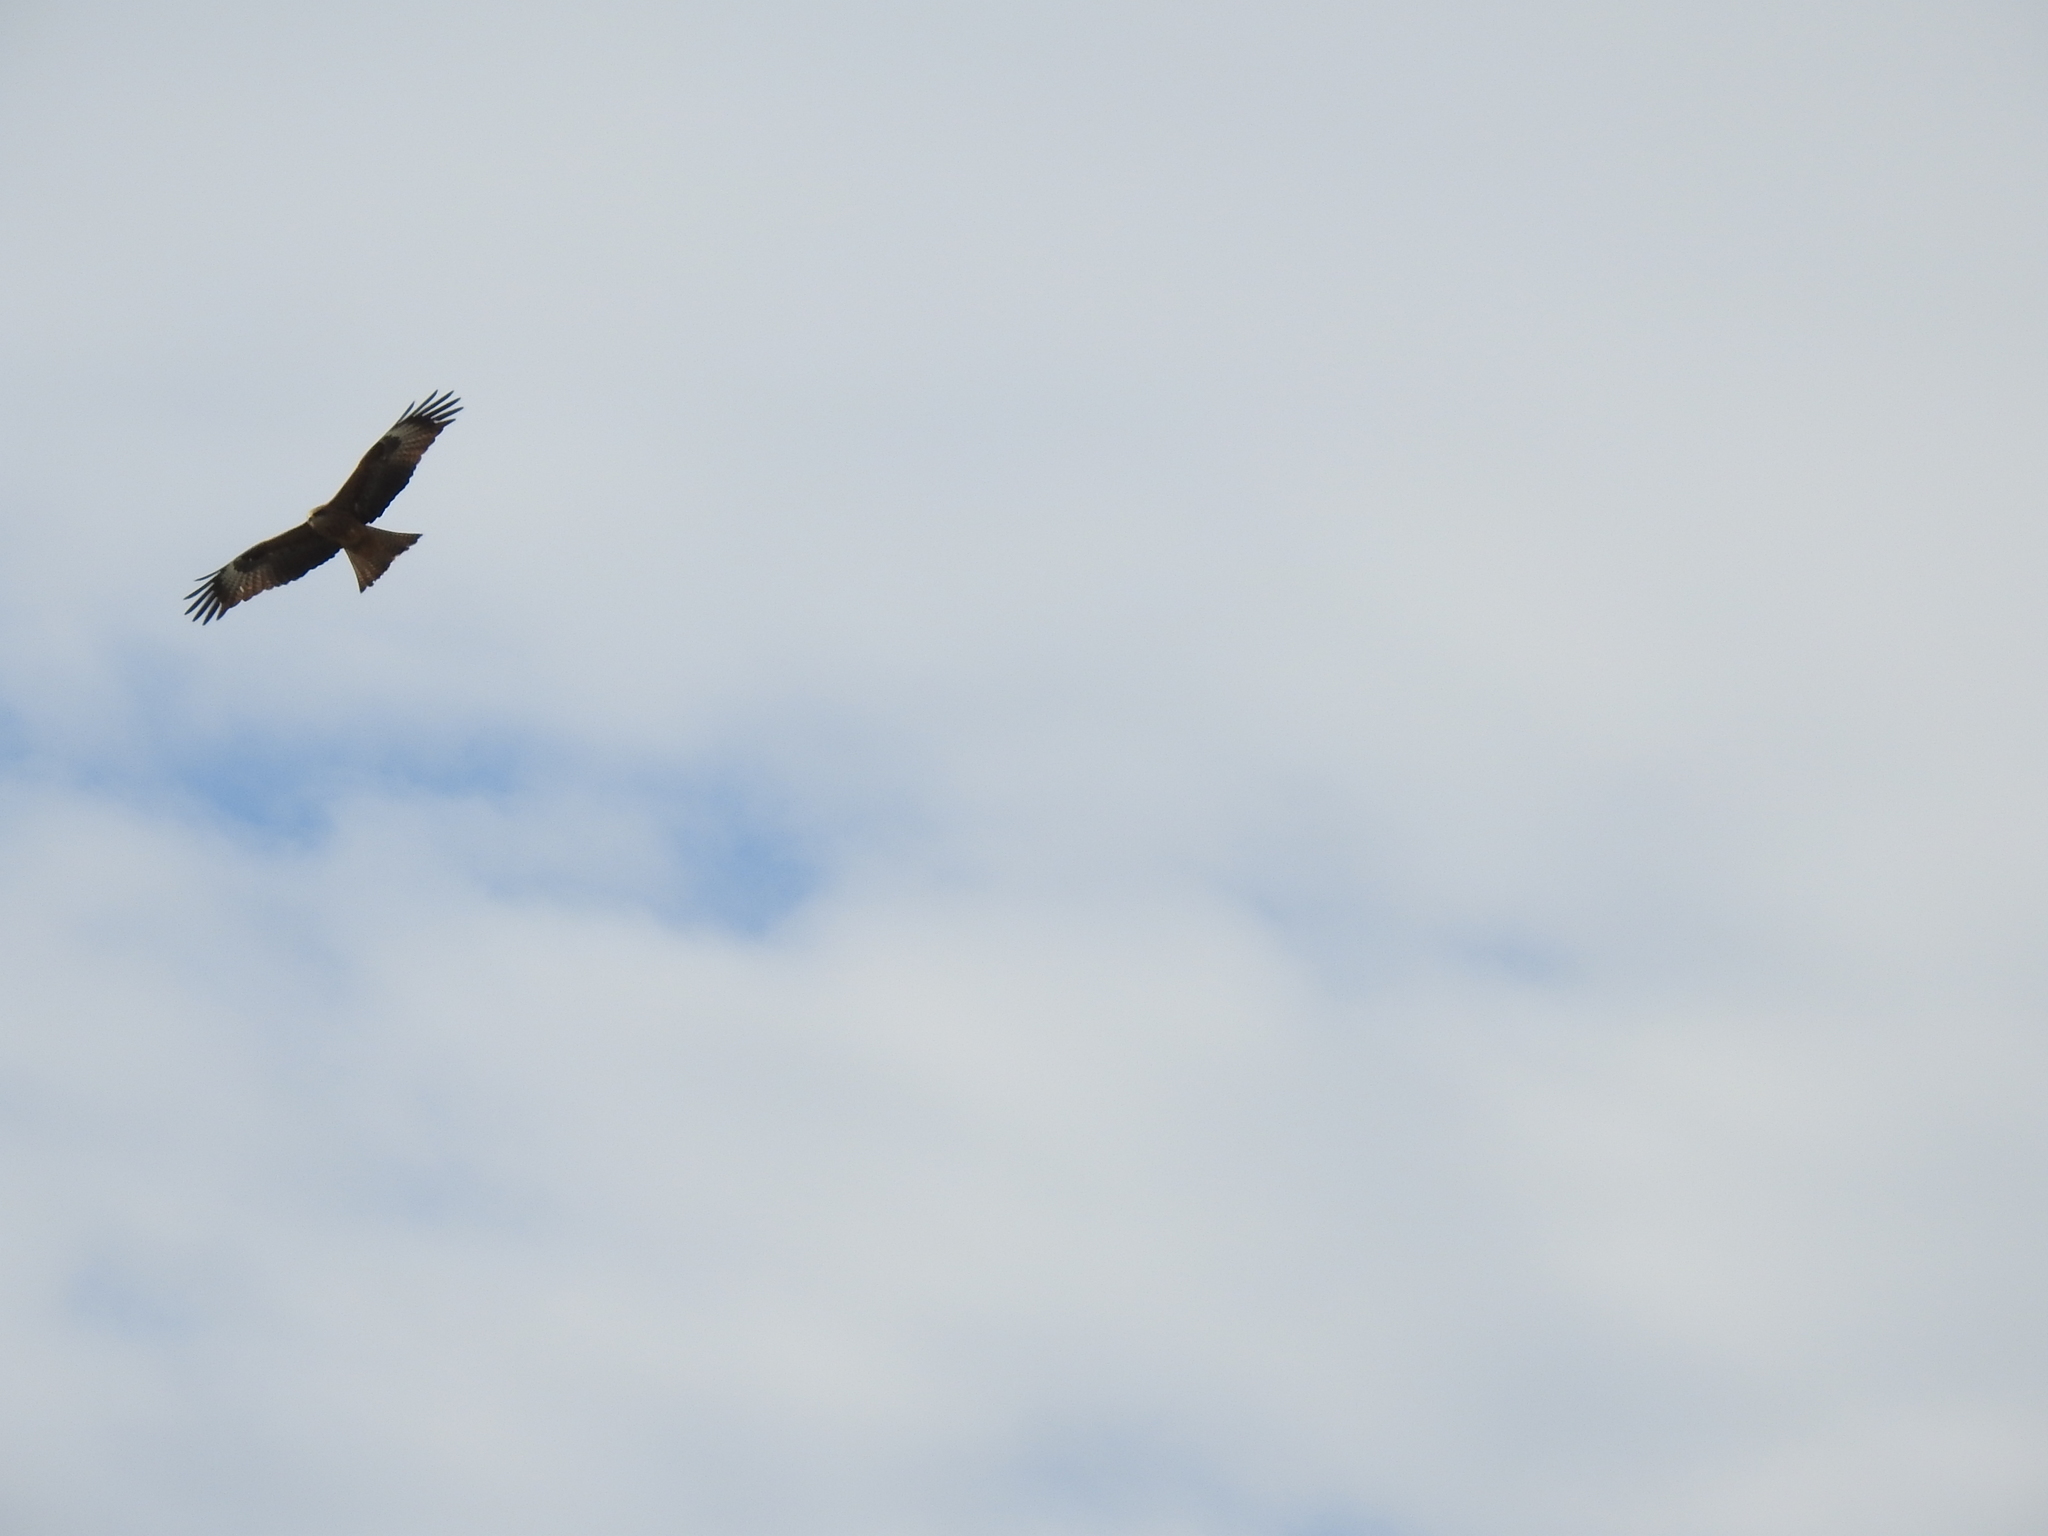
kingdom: Animalia
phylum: Chordata
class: Aves
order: Accipitriformes
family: Accipitridae
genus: Milvus
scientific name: Milvus migrans
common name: Black kite
